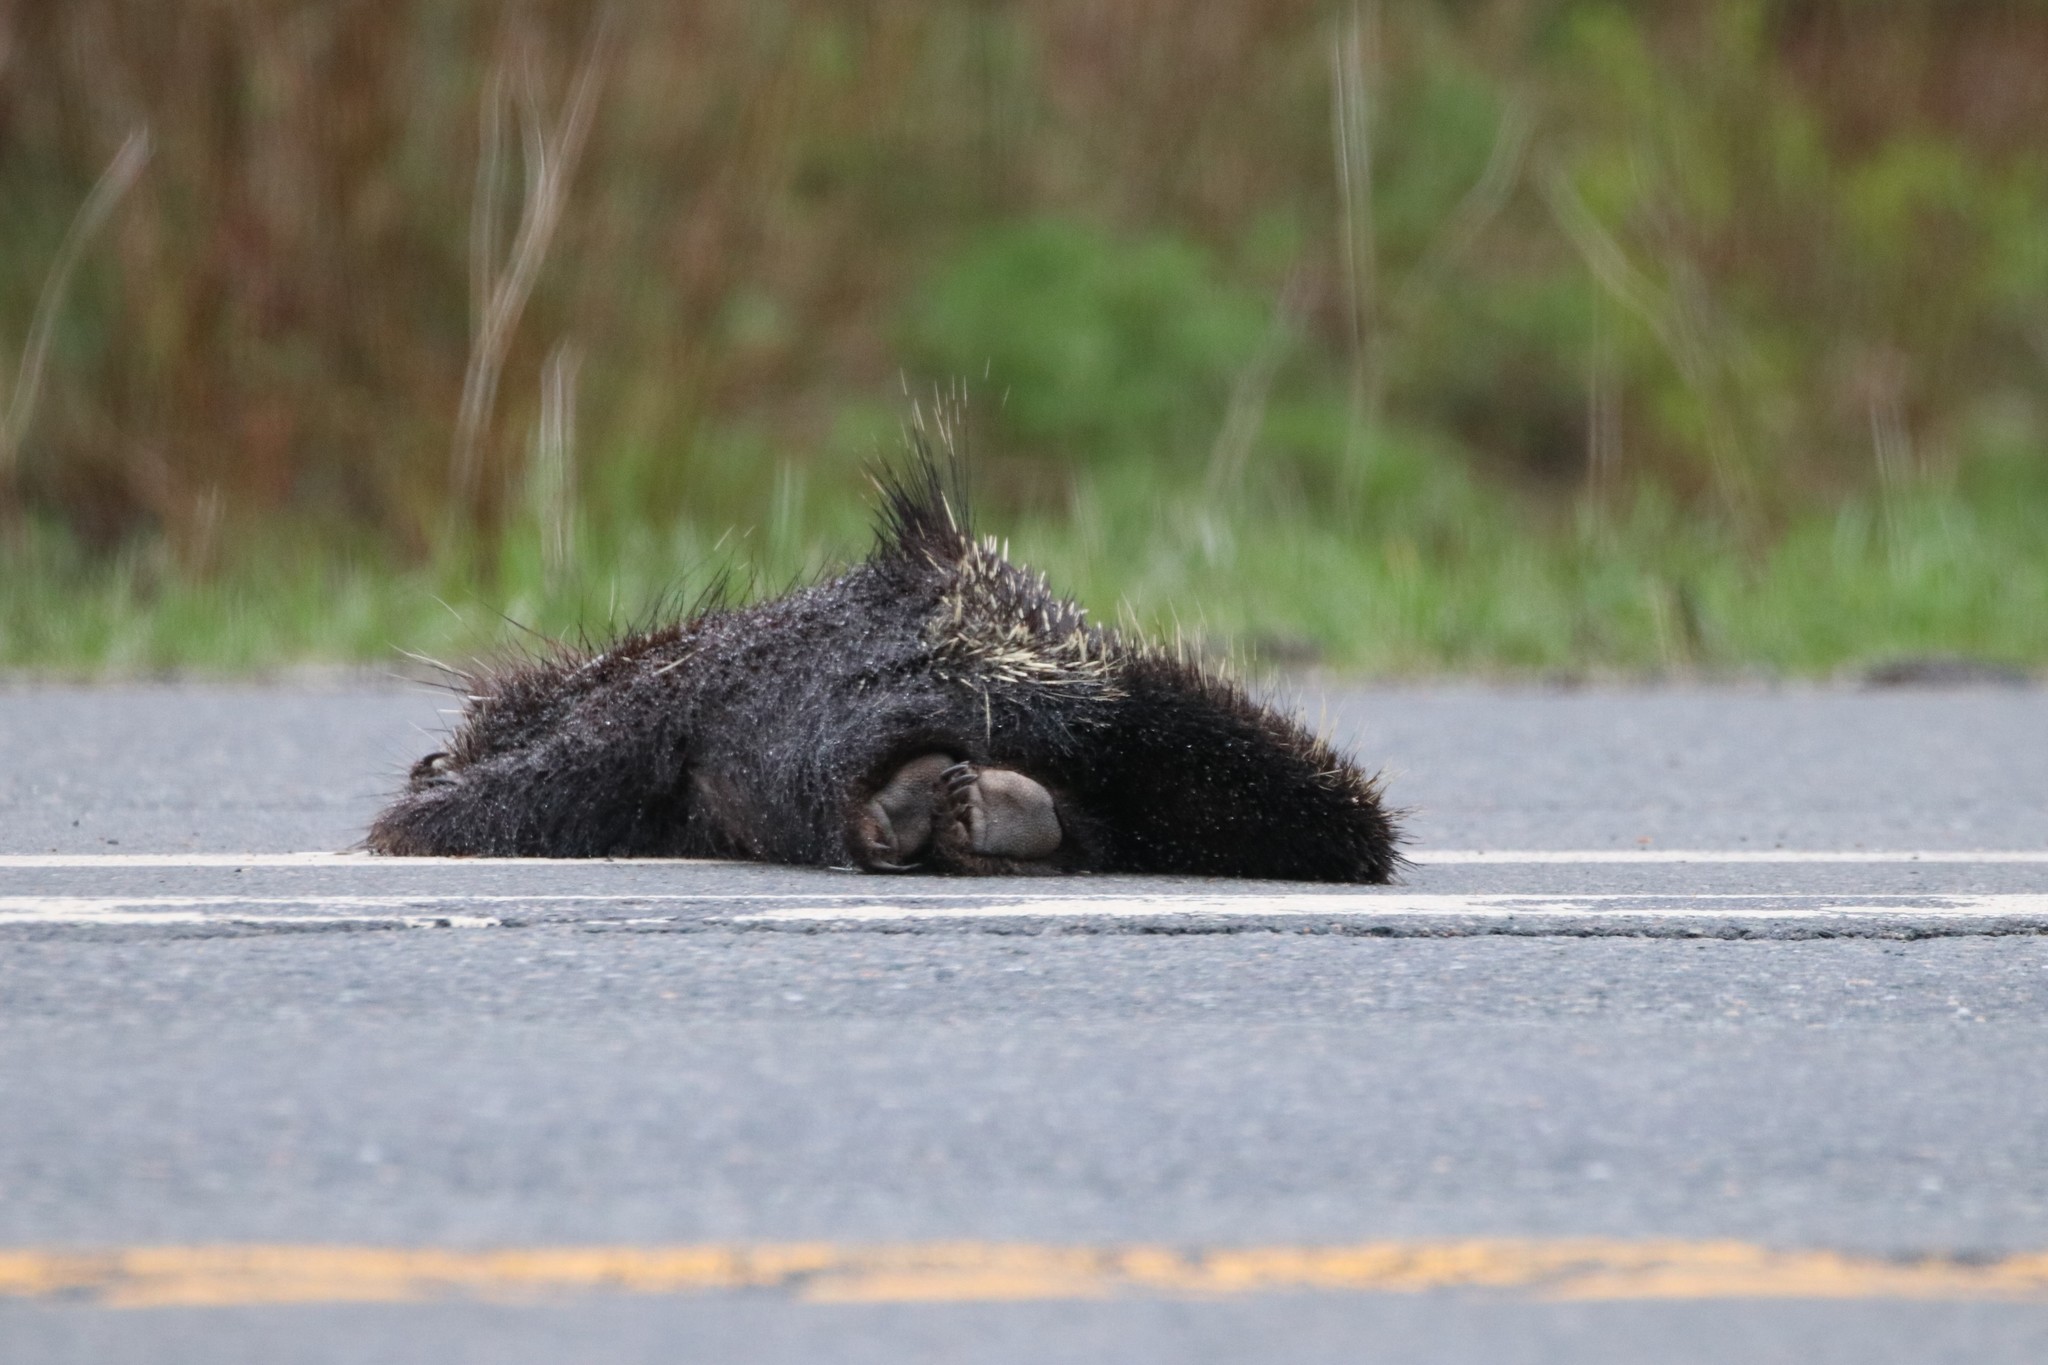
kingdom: Animalia
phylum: Chordata
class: Mammalia
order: Rodentia
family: Erethizontidae
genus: Erethizon
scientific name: Erethizon dorsatus
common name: North american porcupine
